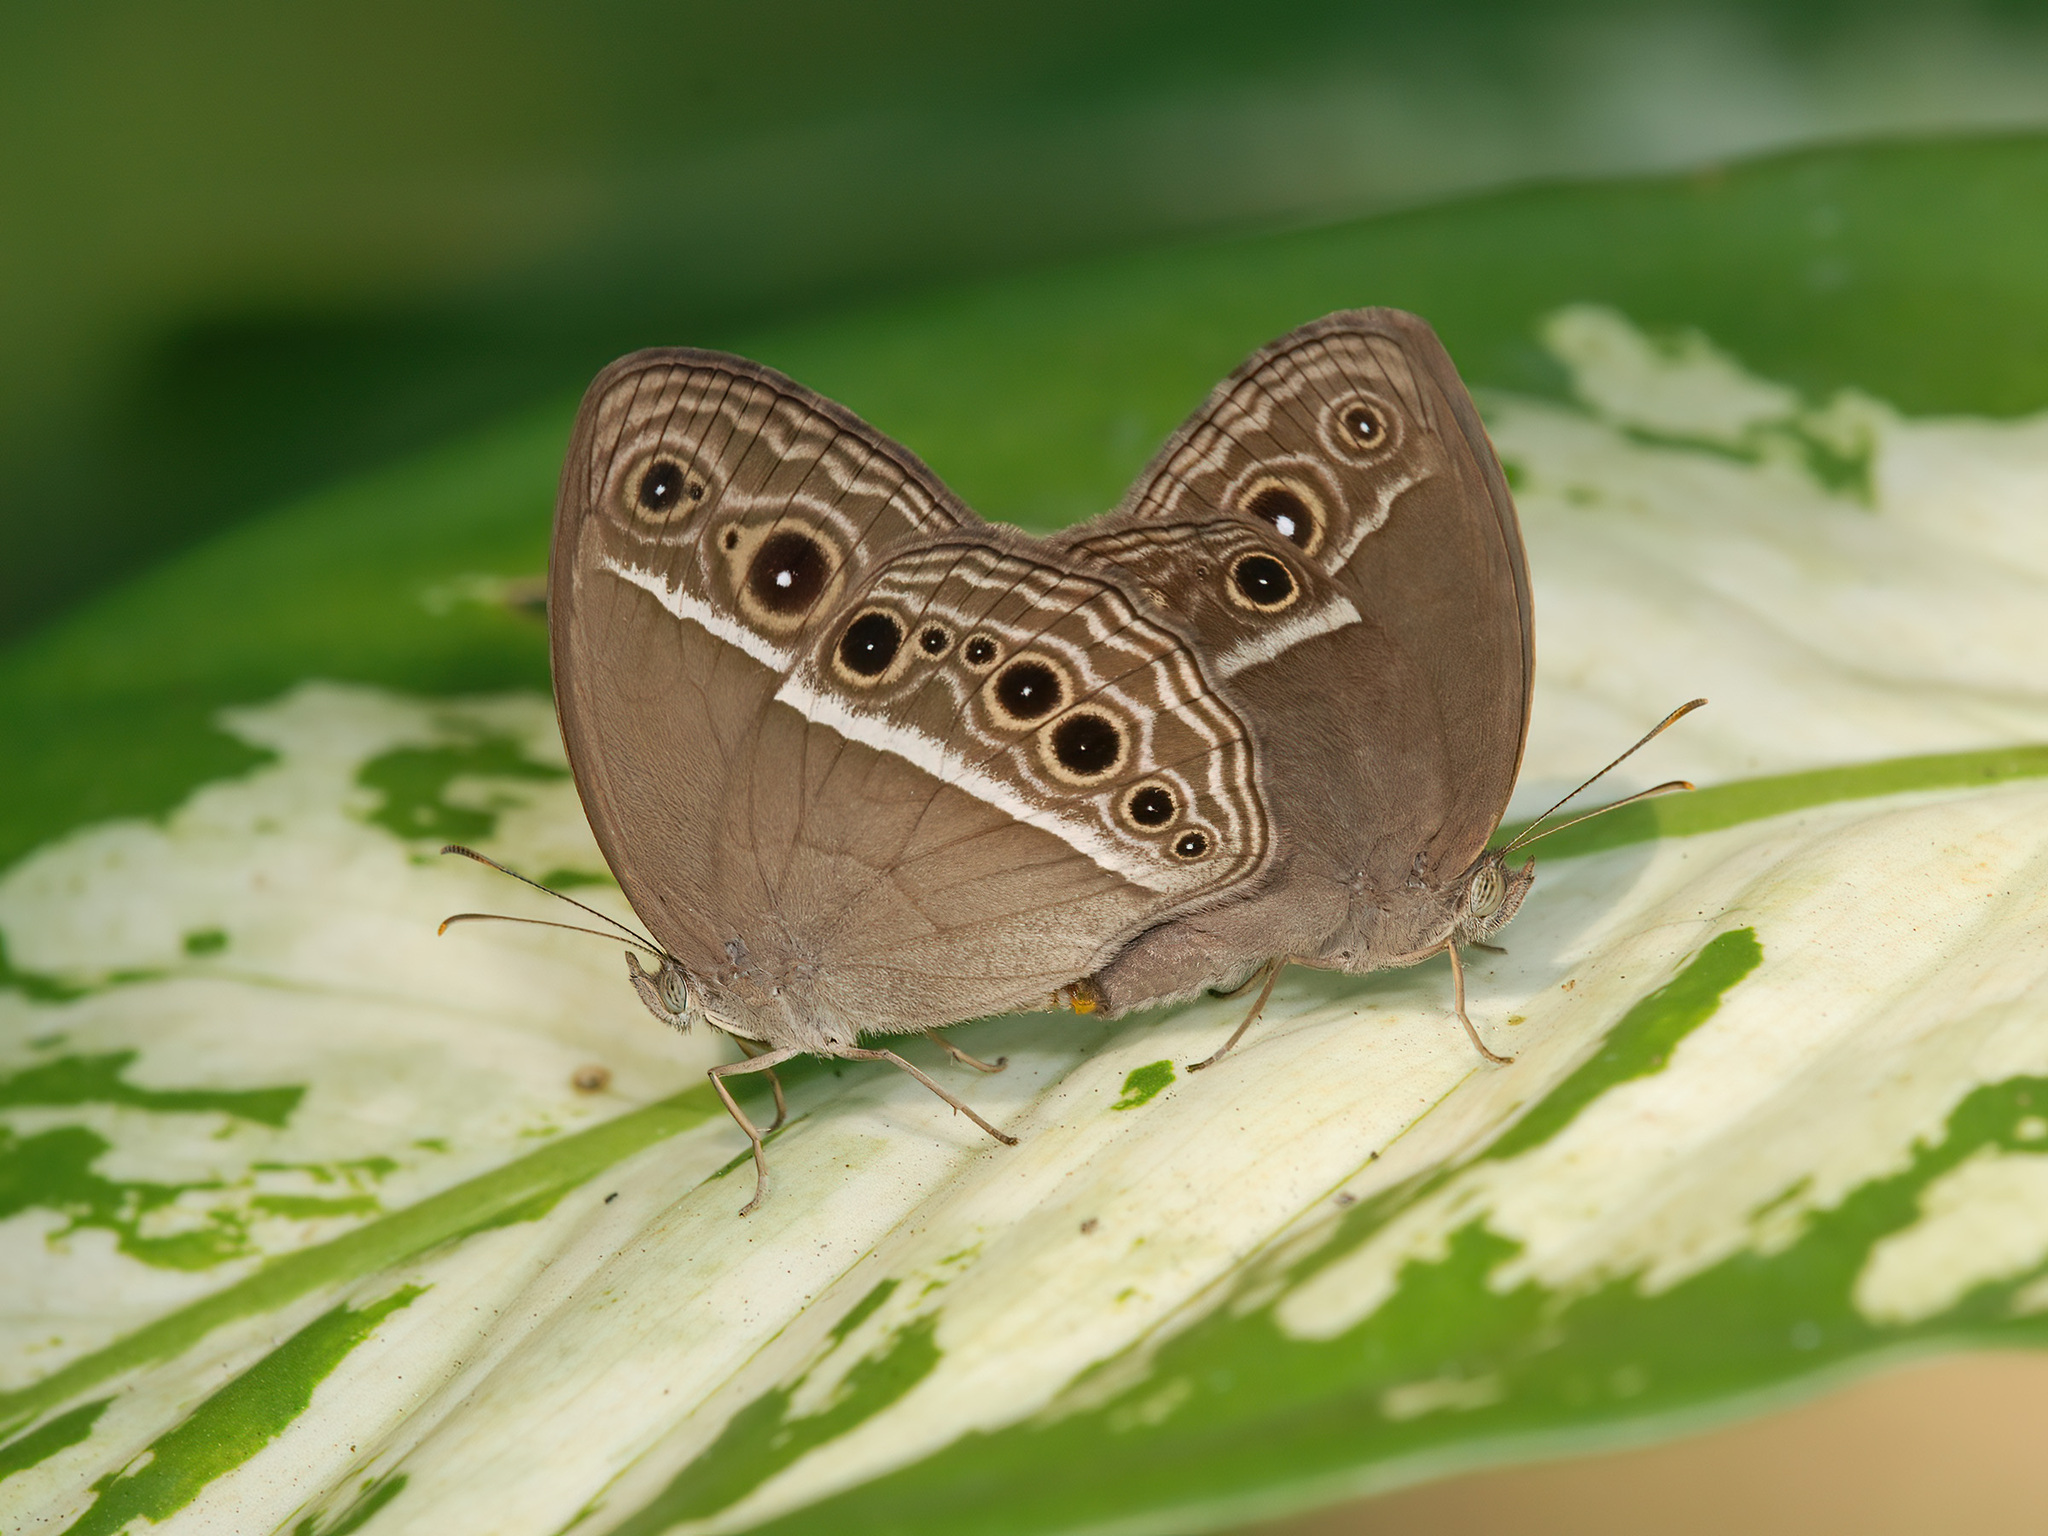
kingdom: Animalia
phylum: Arthropoda
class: Insecta
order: Lepidoptera
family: Nymphalidae
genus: Mycalesis
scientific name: Mycalesis mineus
